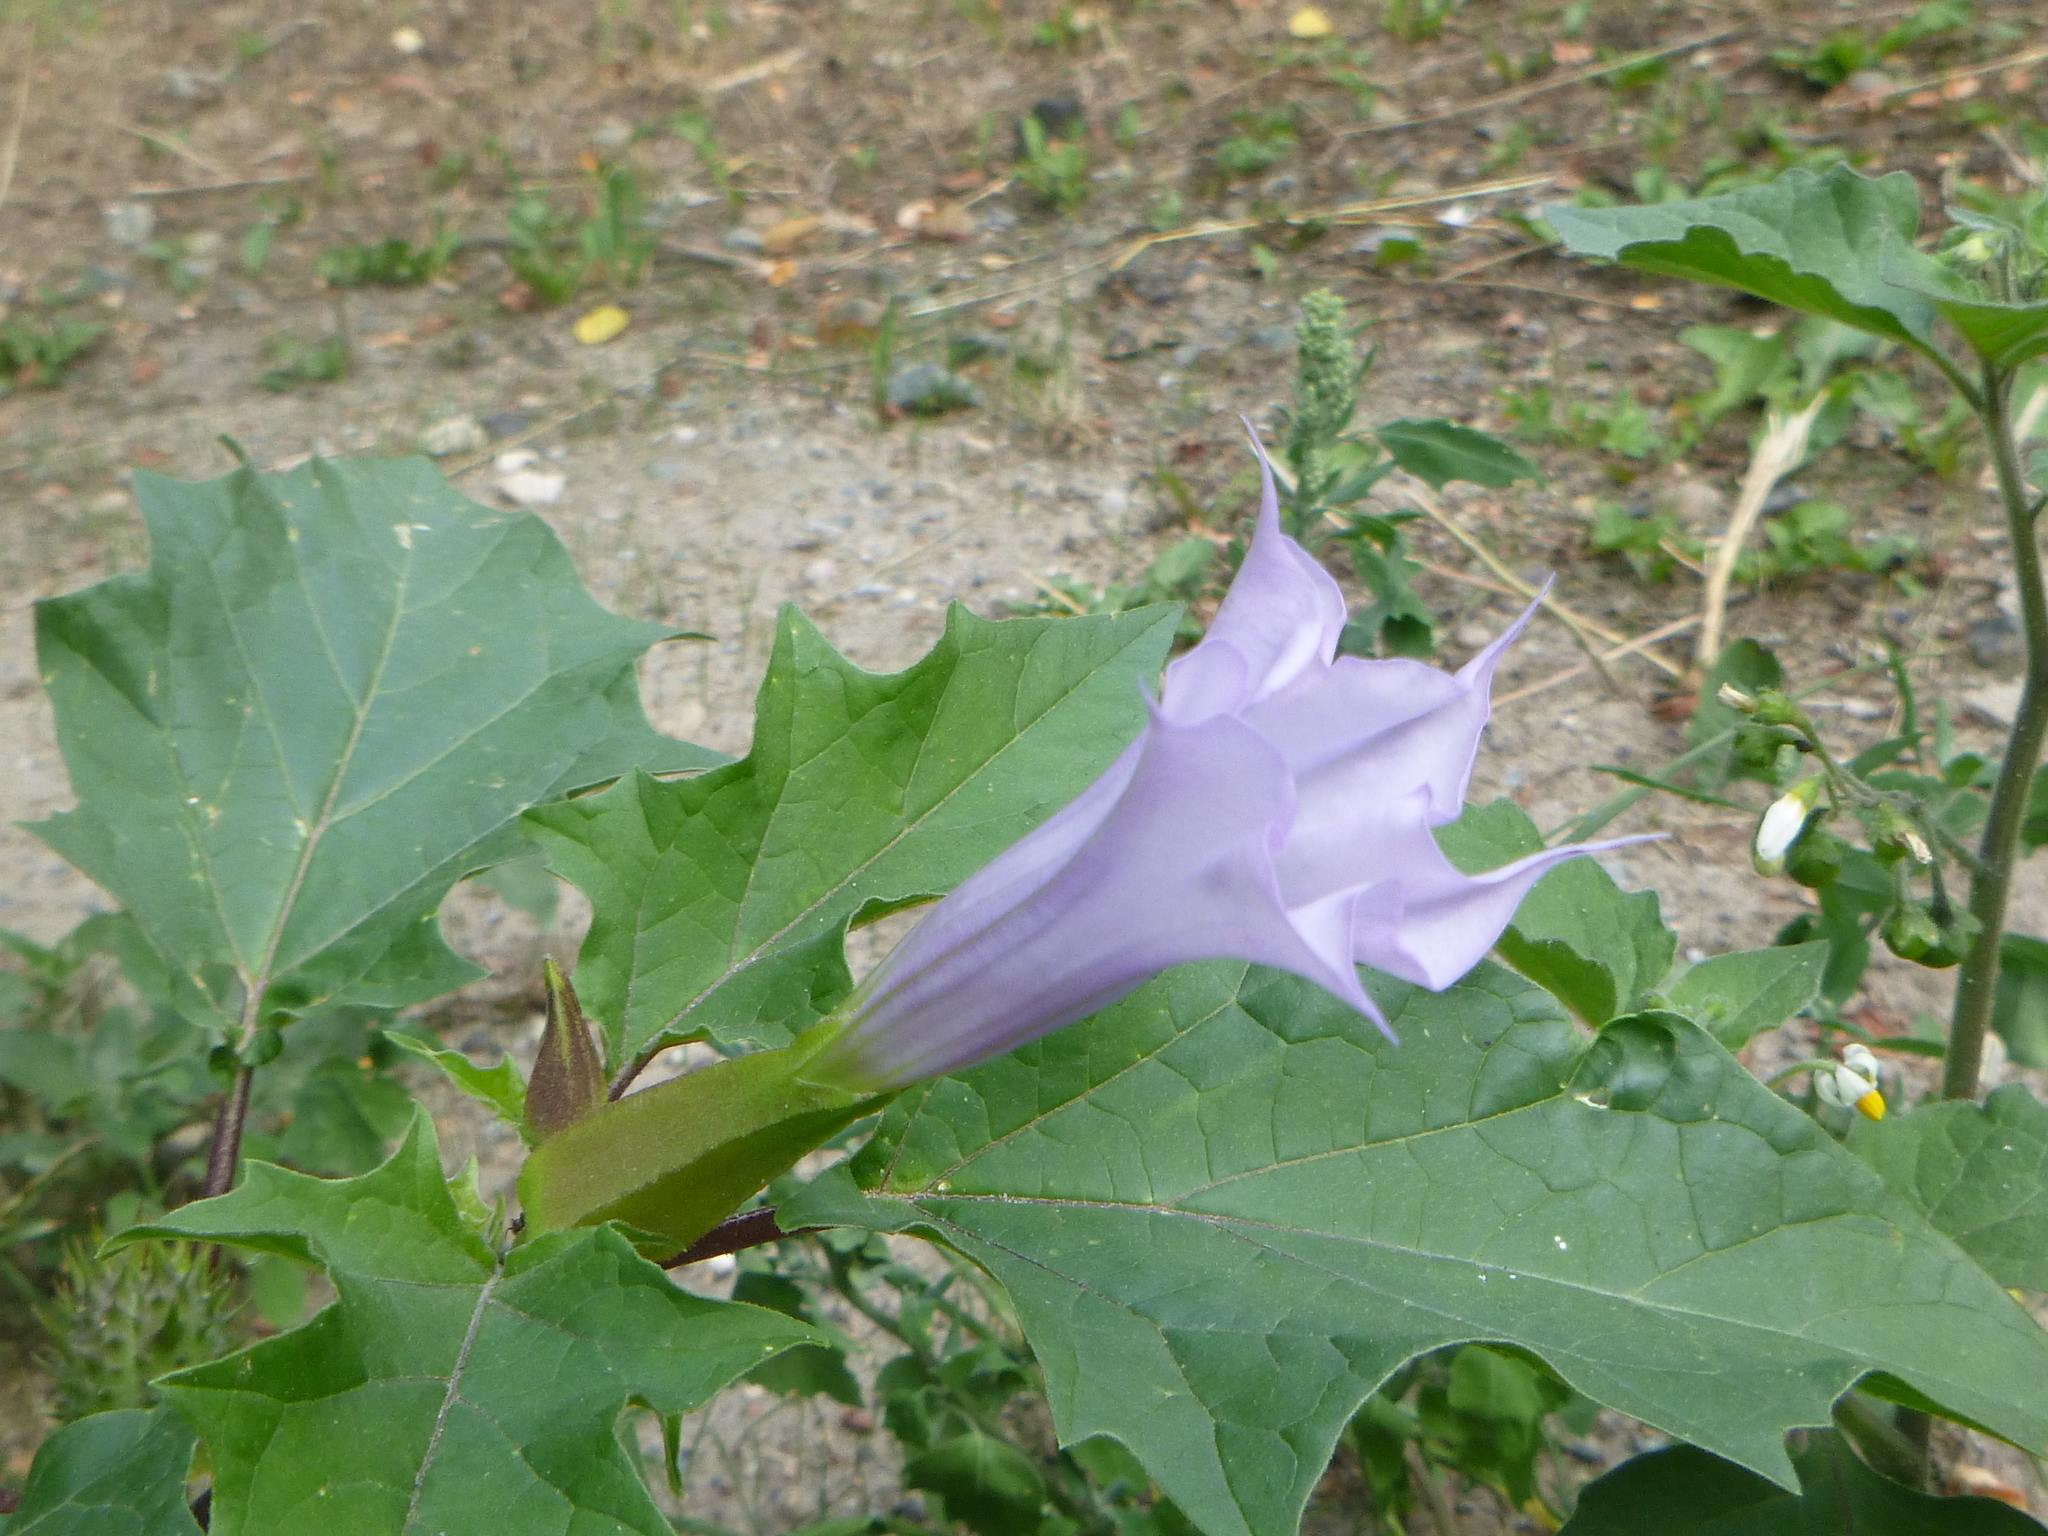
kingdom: Plantae
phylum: Tracheophyta
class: Magnoliopsida
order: Solanales
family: Solanaceae
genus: Datura
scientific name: Datura stramonium
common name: Thorn-apple
